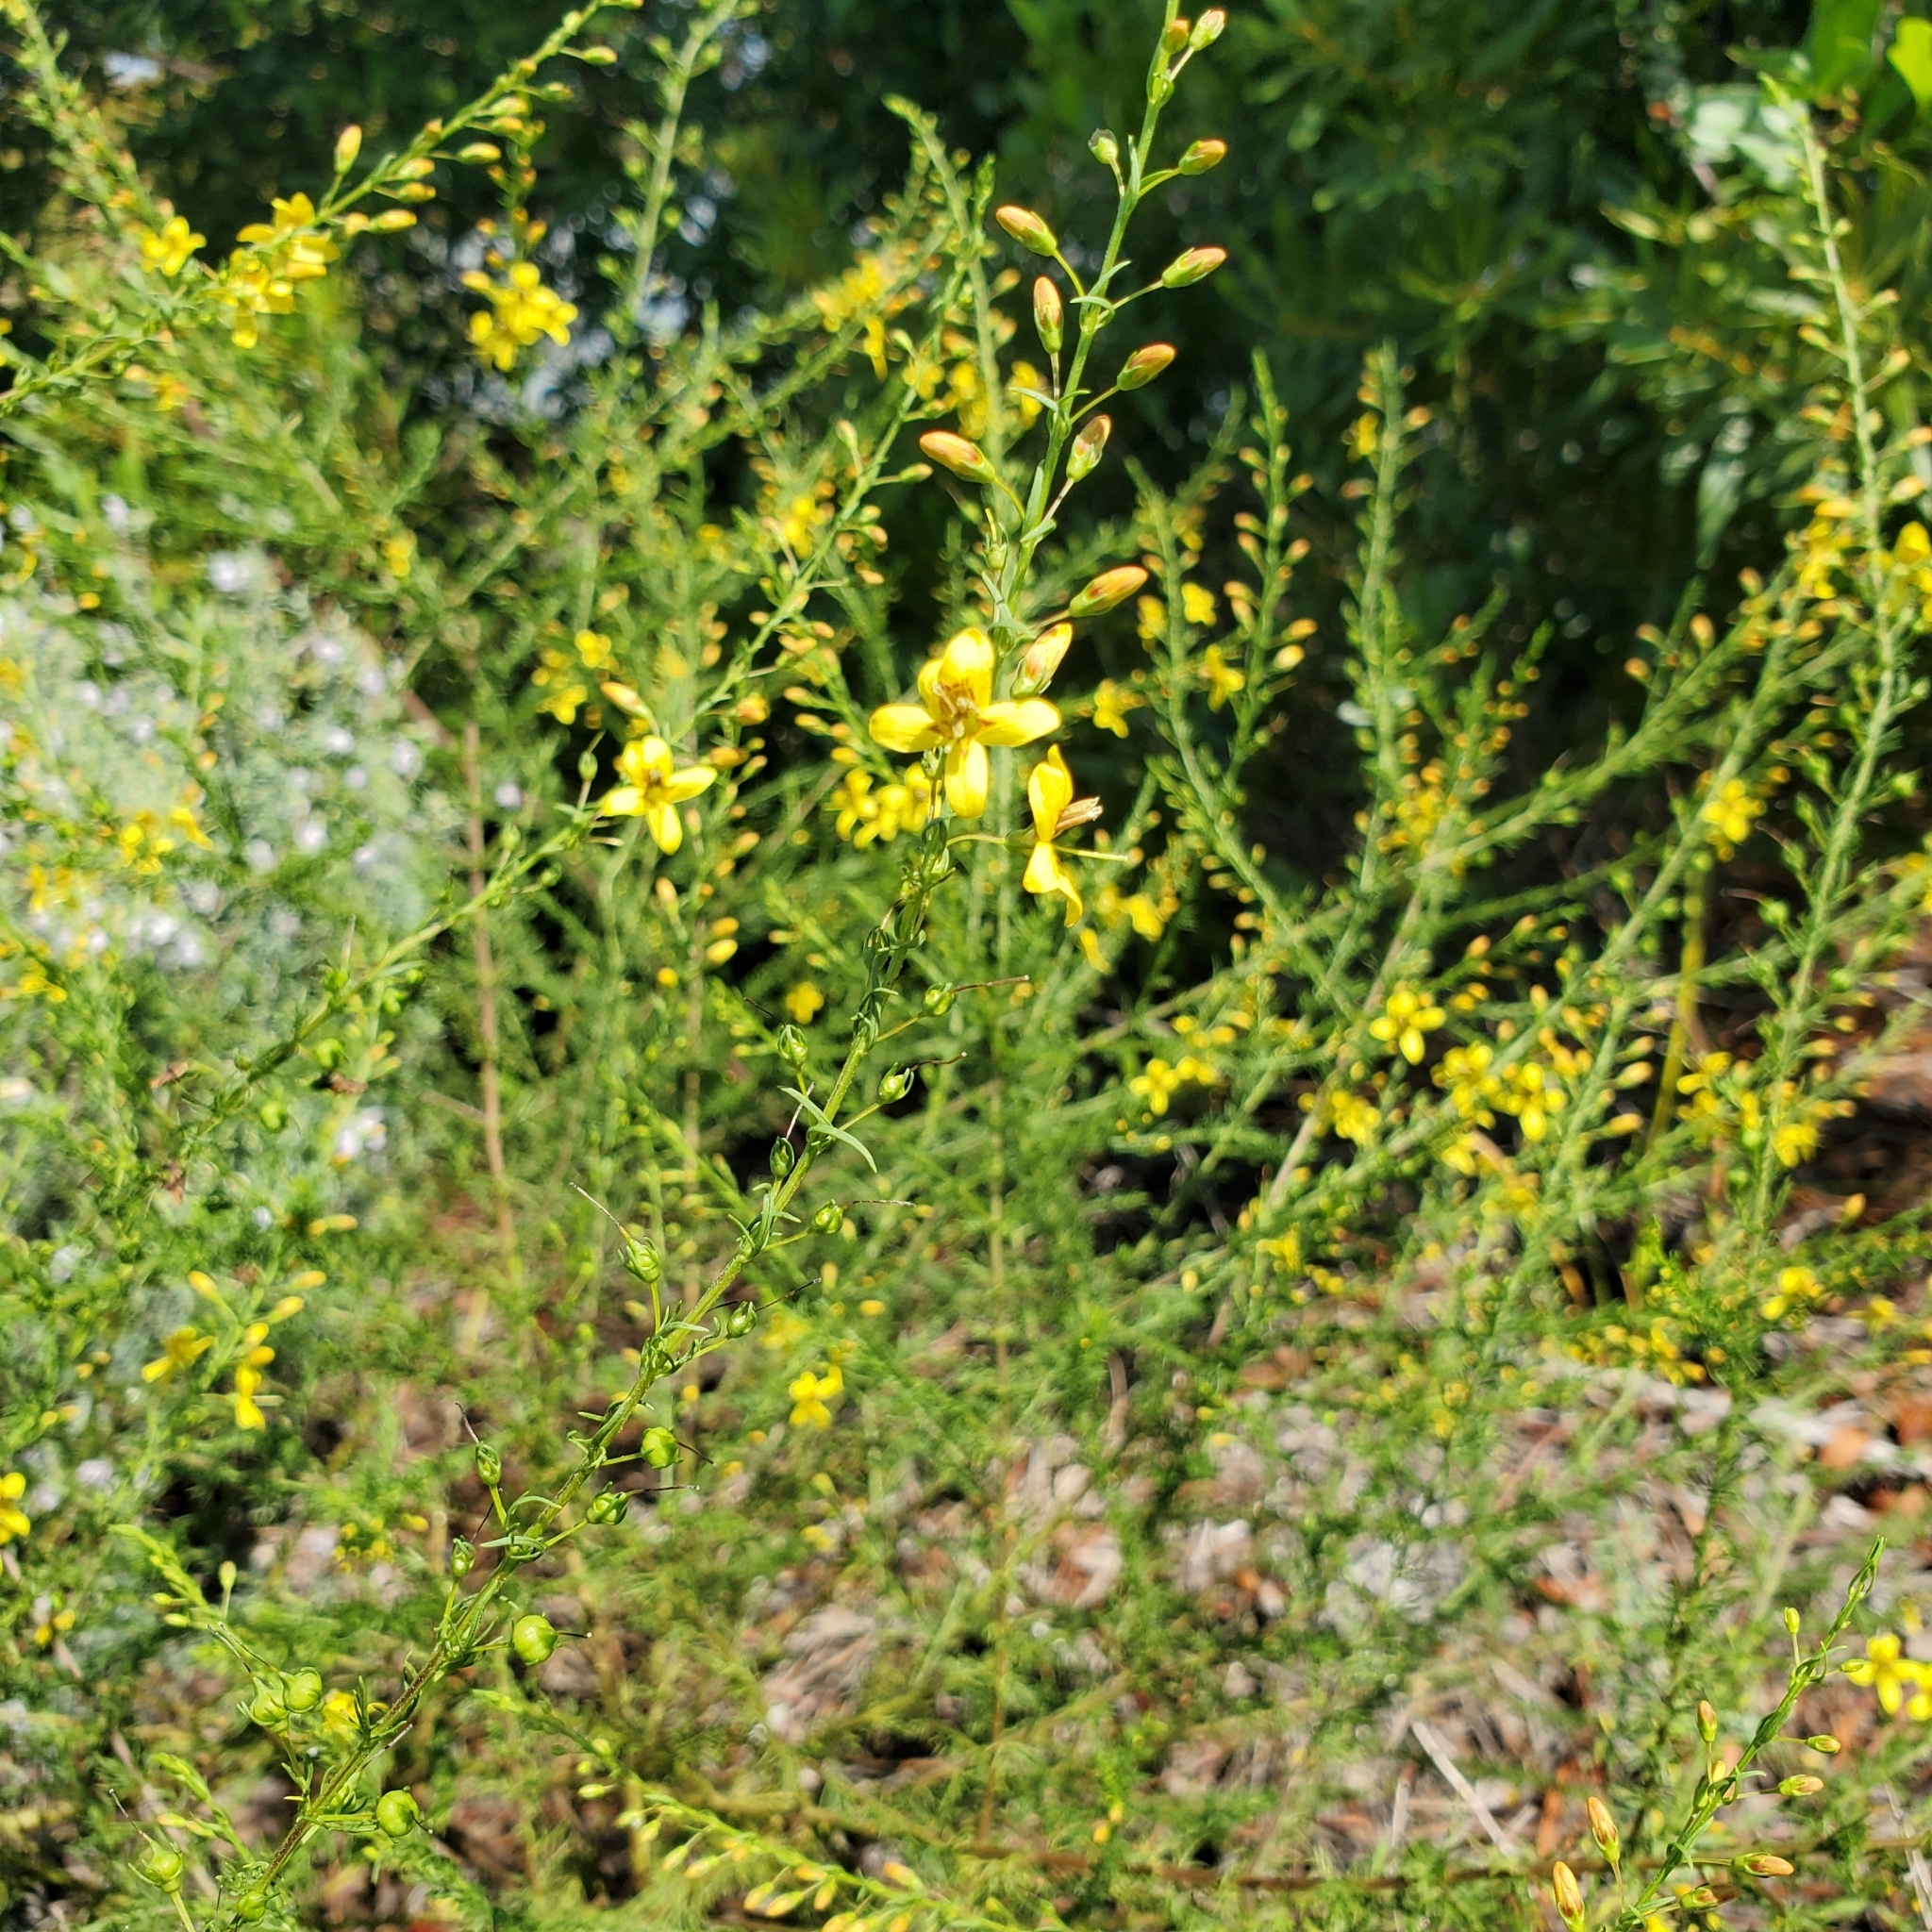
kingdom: Plantae
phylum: Tracheophyta
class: Magnoliopsida
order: Lamiales
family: Orobanchaceae
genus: Seymeria
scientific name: Seymeria cassioides
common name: Yaupon black-senna
